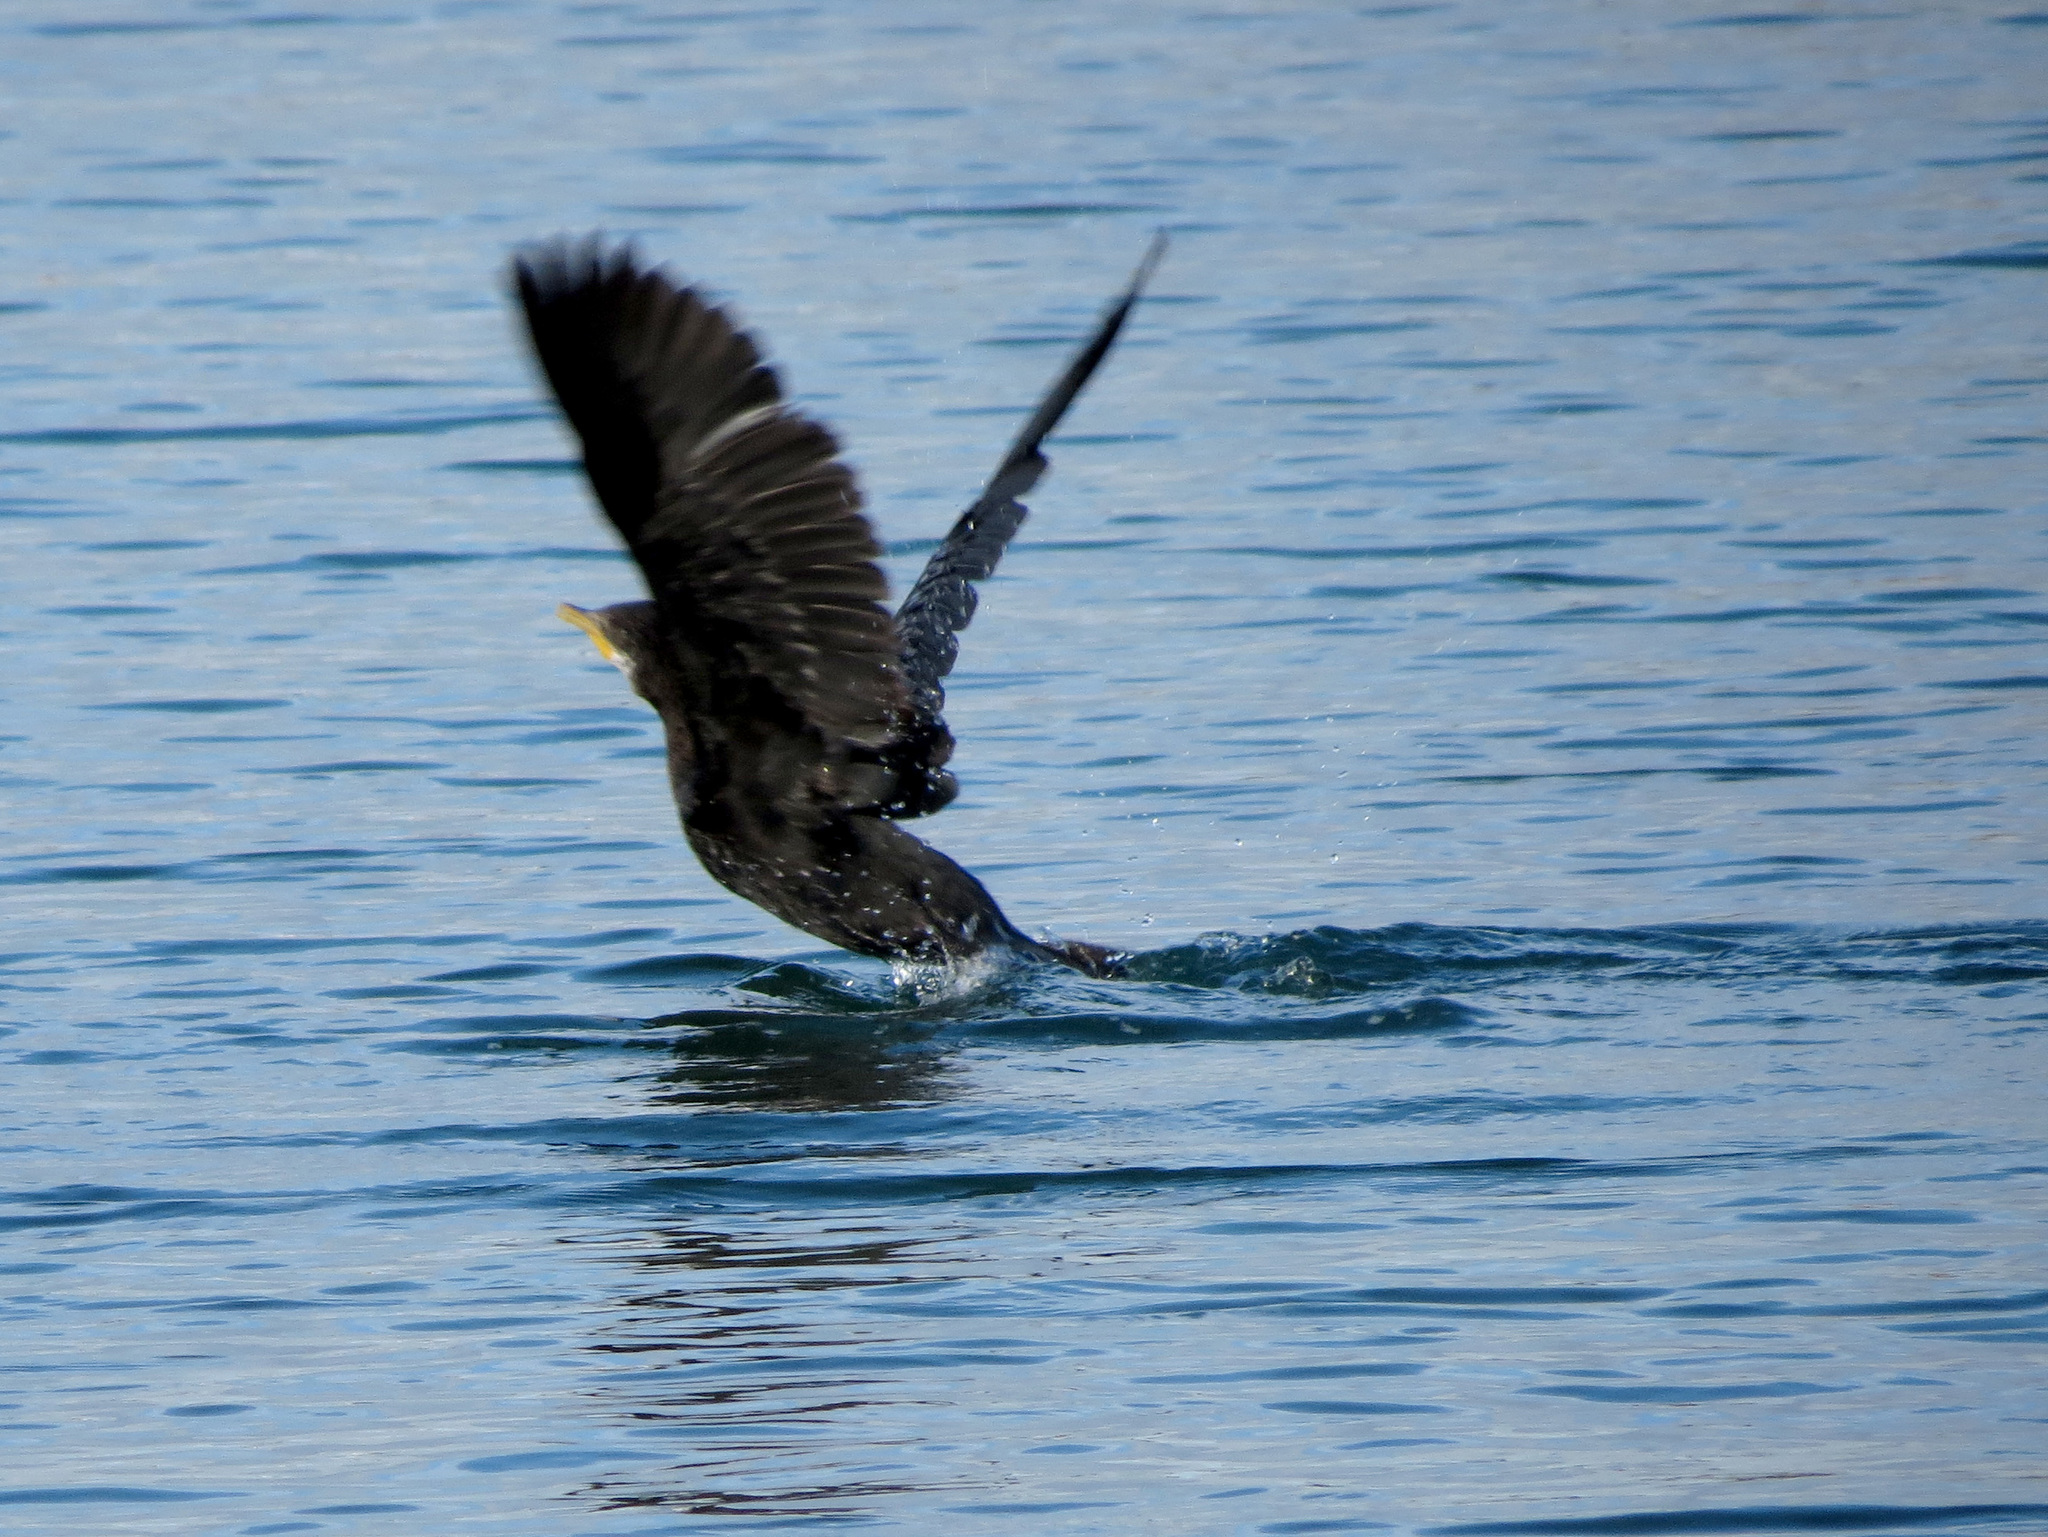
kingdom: Animalia
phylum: Chordata
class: Aves
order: Suliformes
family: Phalacrocoracidae
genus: Microcarbo
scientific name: Microcarbo melanoleucos
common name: Little pied cormorant
